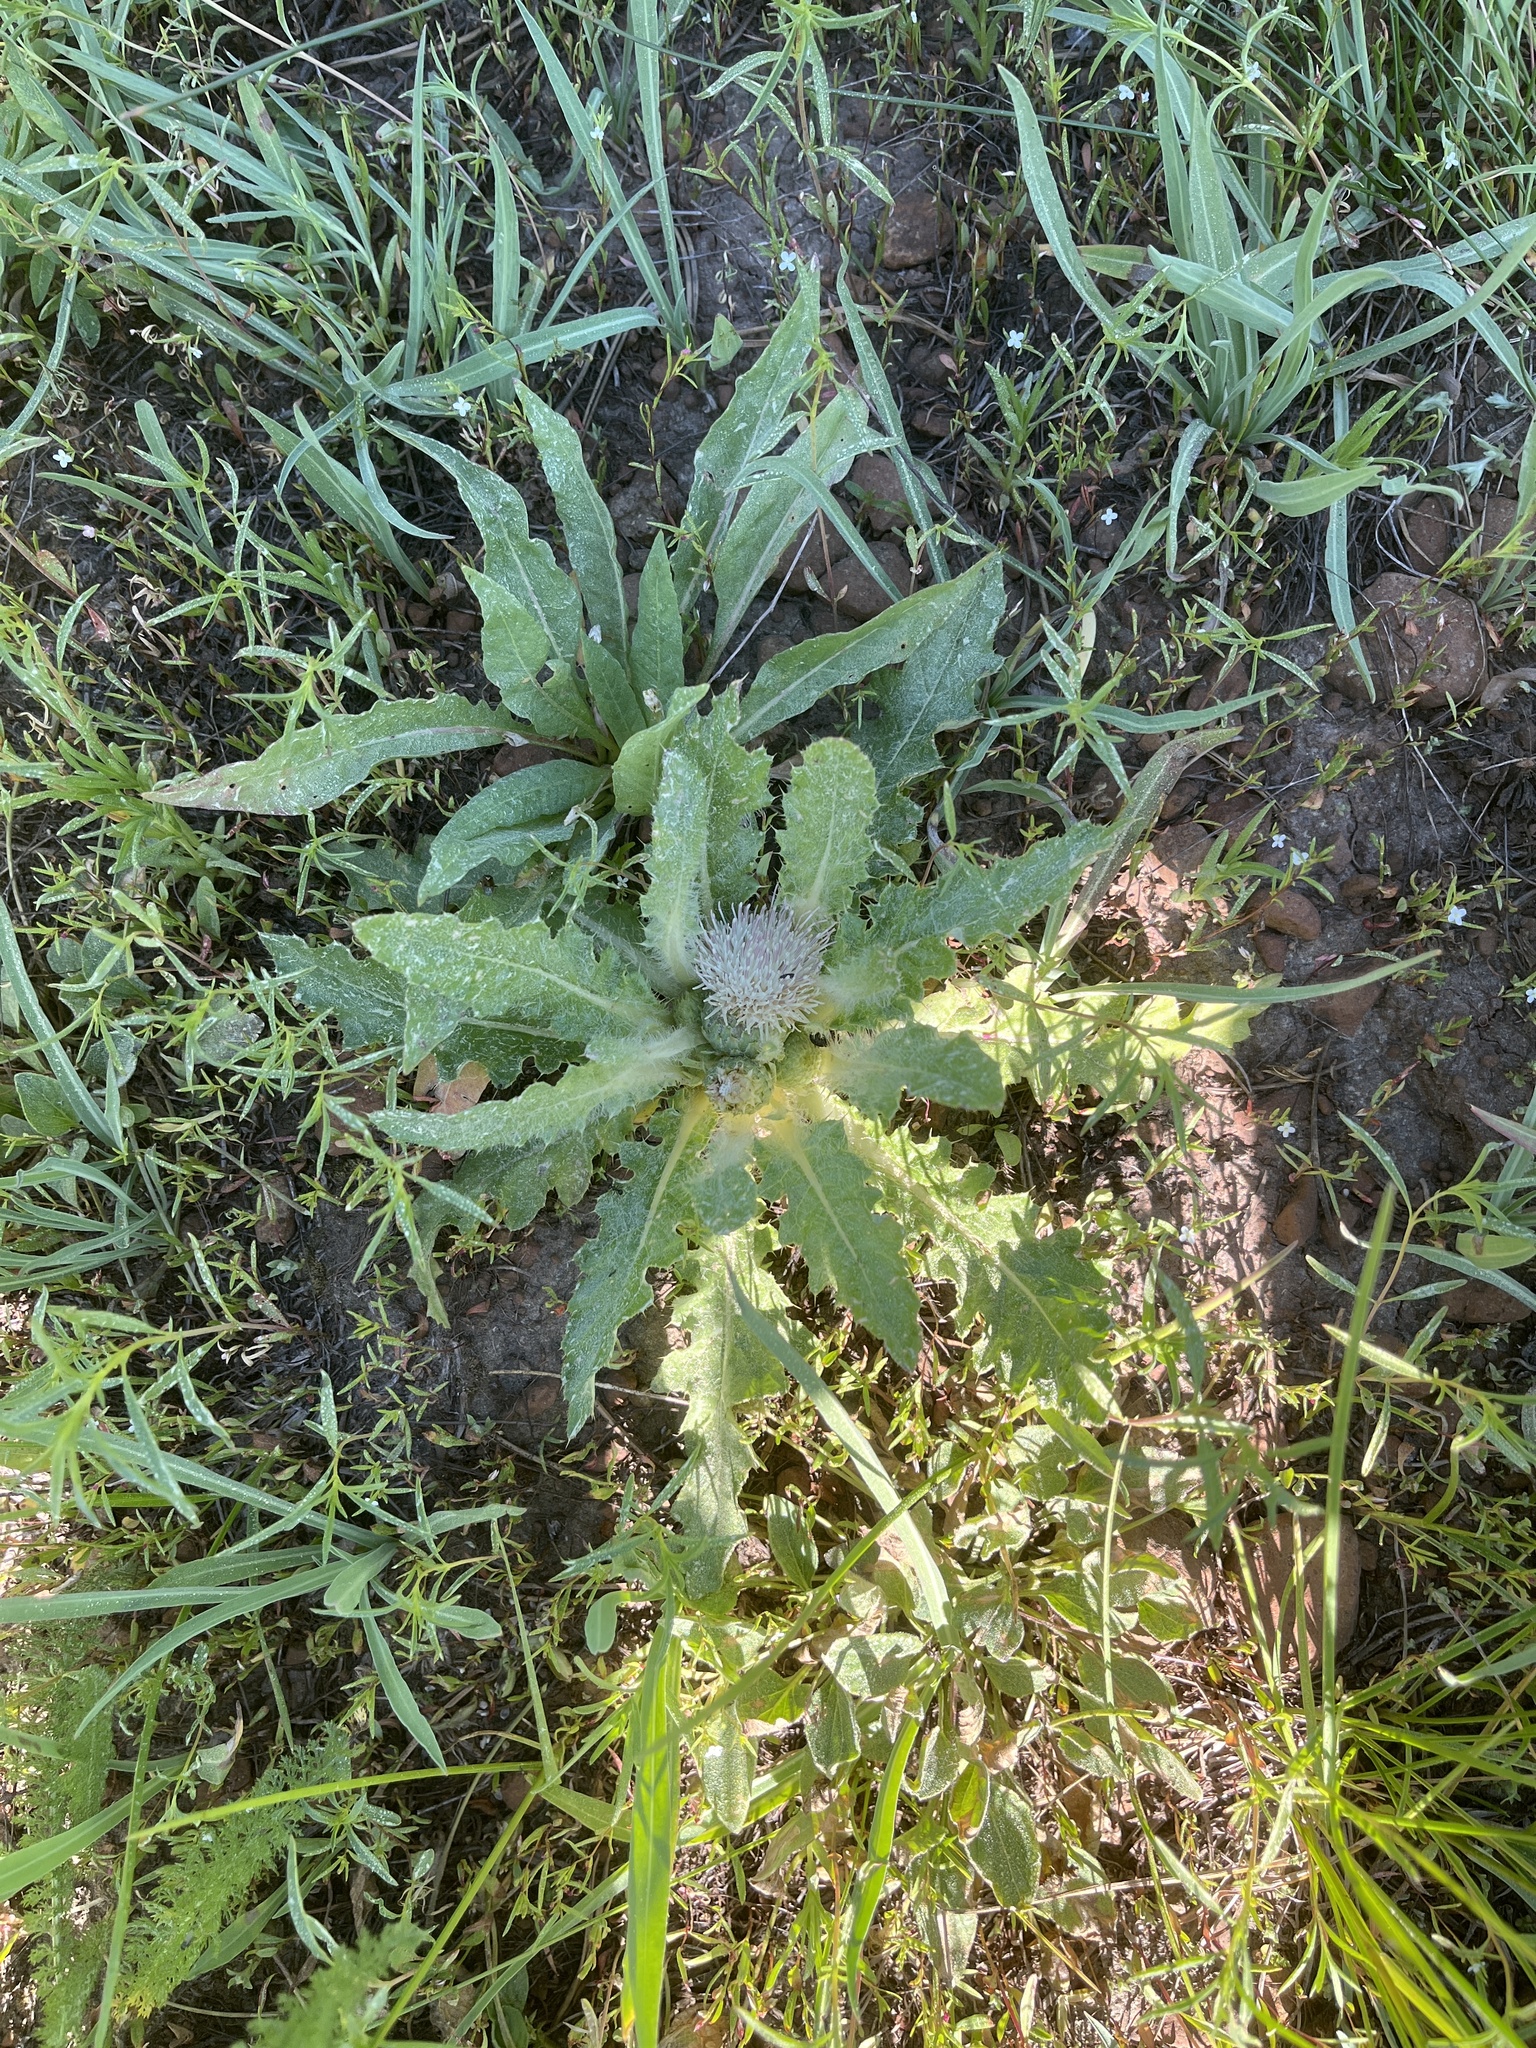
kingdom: Plantae
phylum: Tracheophyta
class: Magnoliopsida
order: Asterales
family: Asteraceae
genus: Cirsium
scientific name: Cirsium scariosum
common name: Meadow thistle
